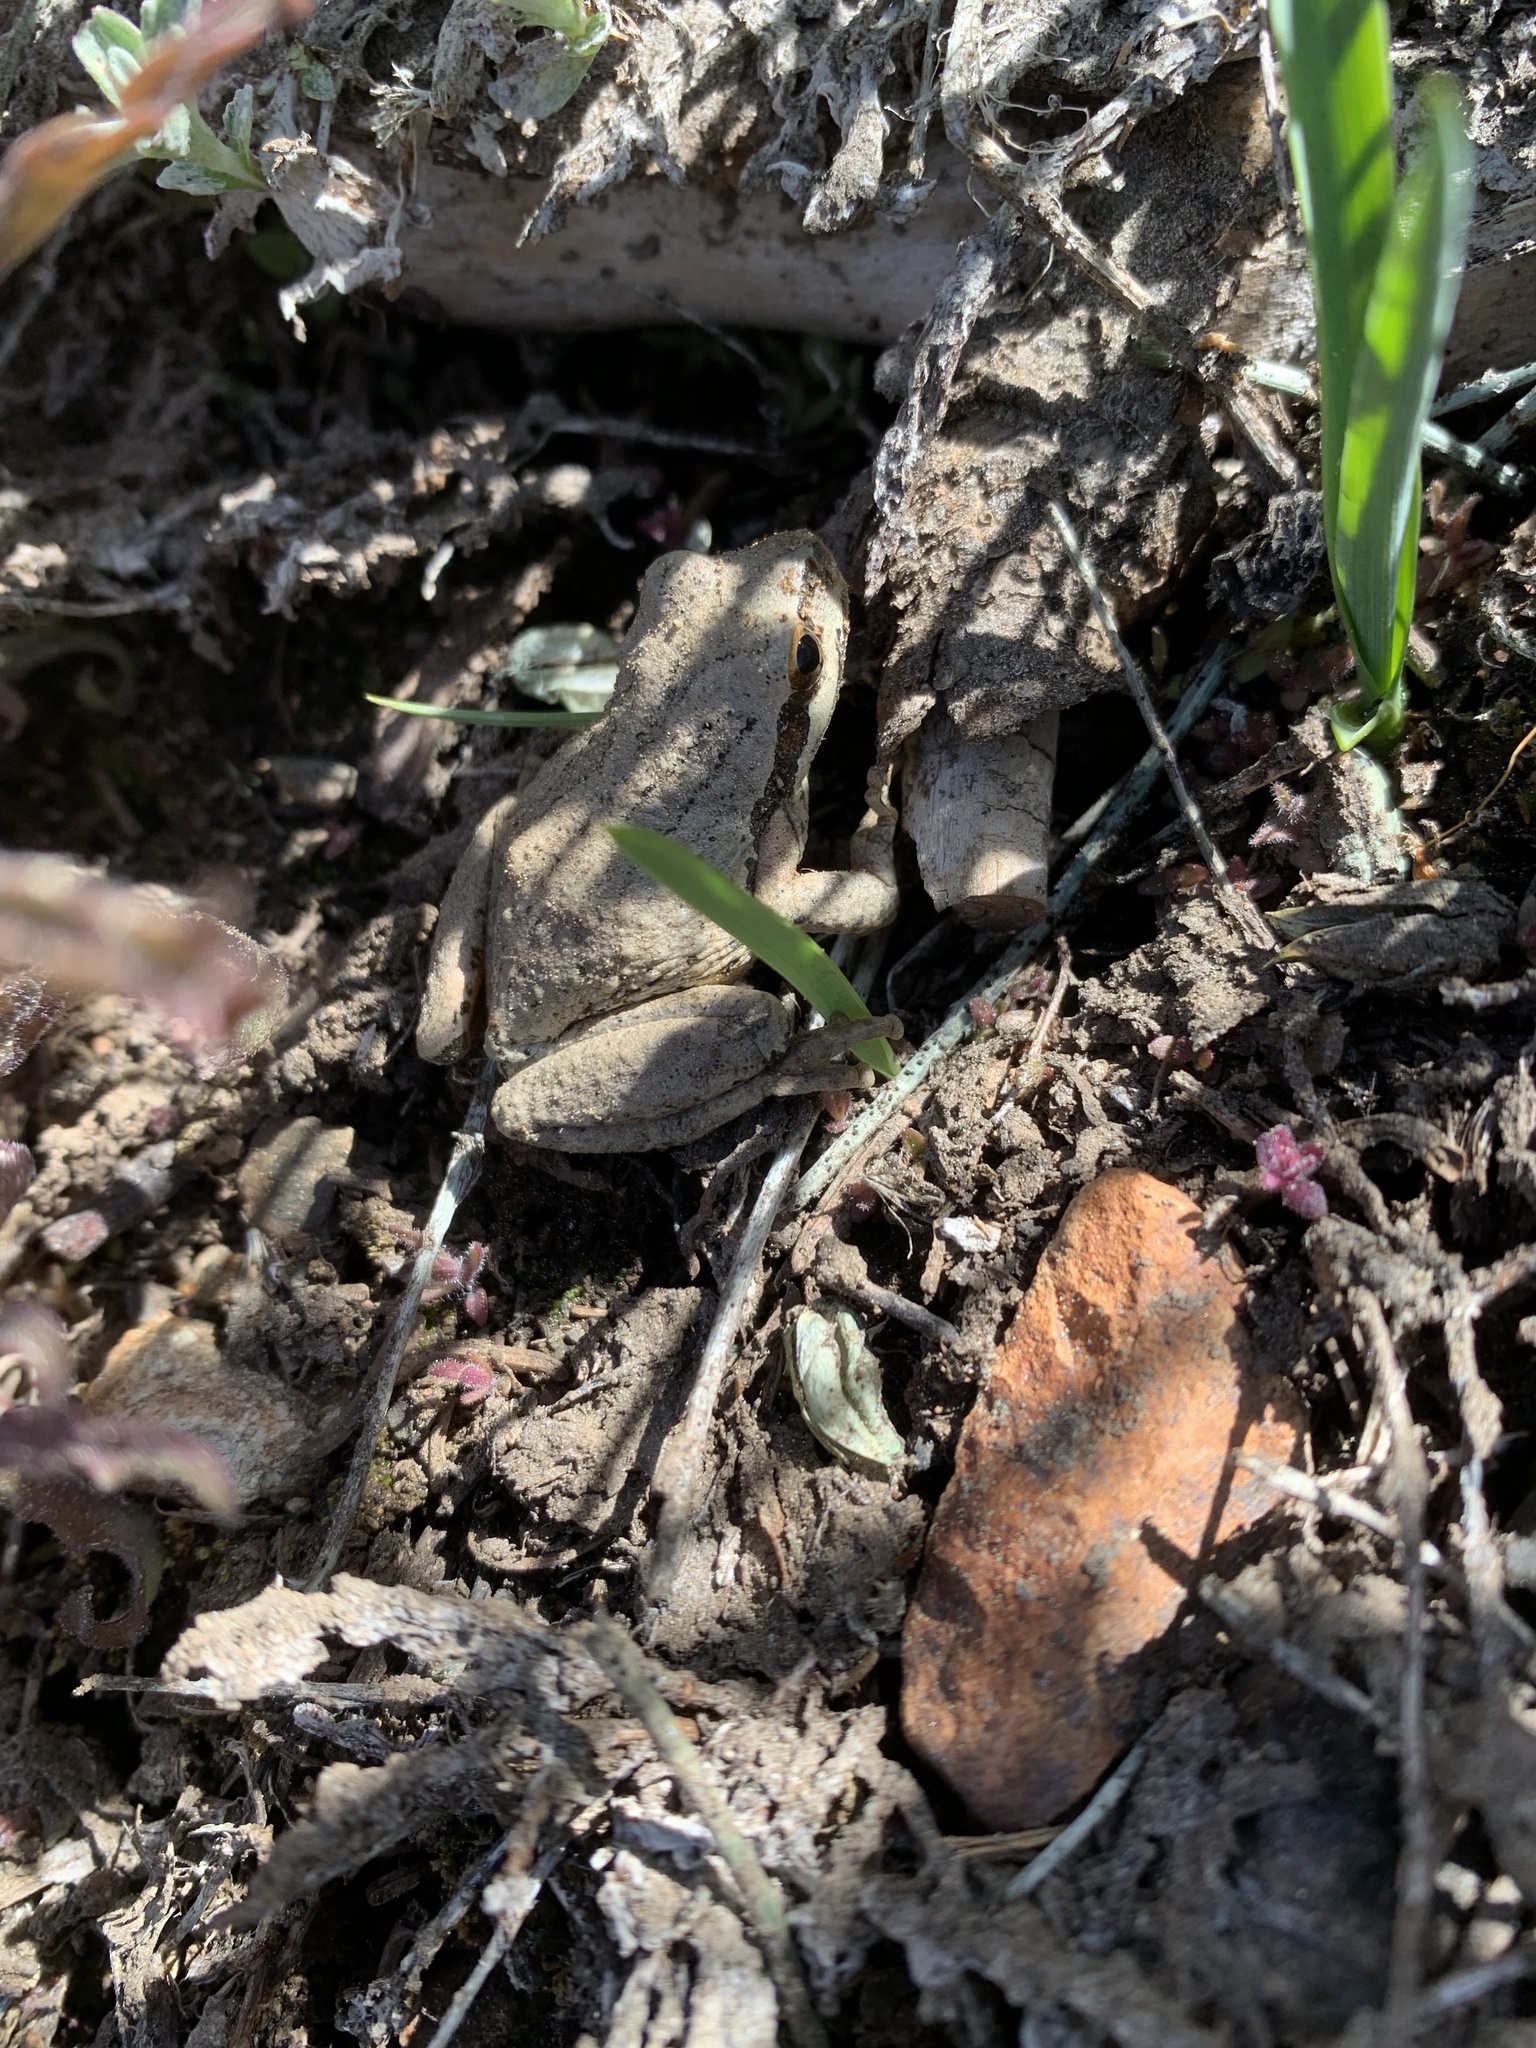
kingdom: Animalia
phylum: Chordata
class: Amphibia
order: Anura
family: Hylidae
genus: Pseudacris
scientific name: Pseudacris regilla
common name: Pacific chorus frog
